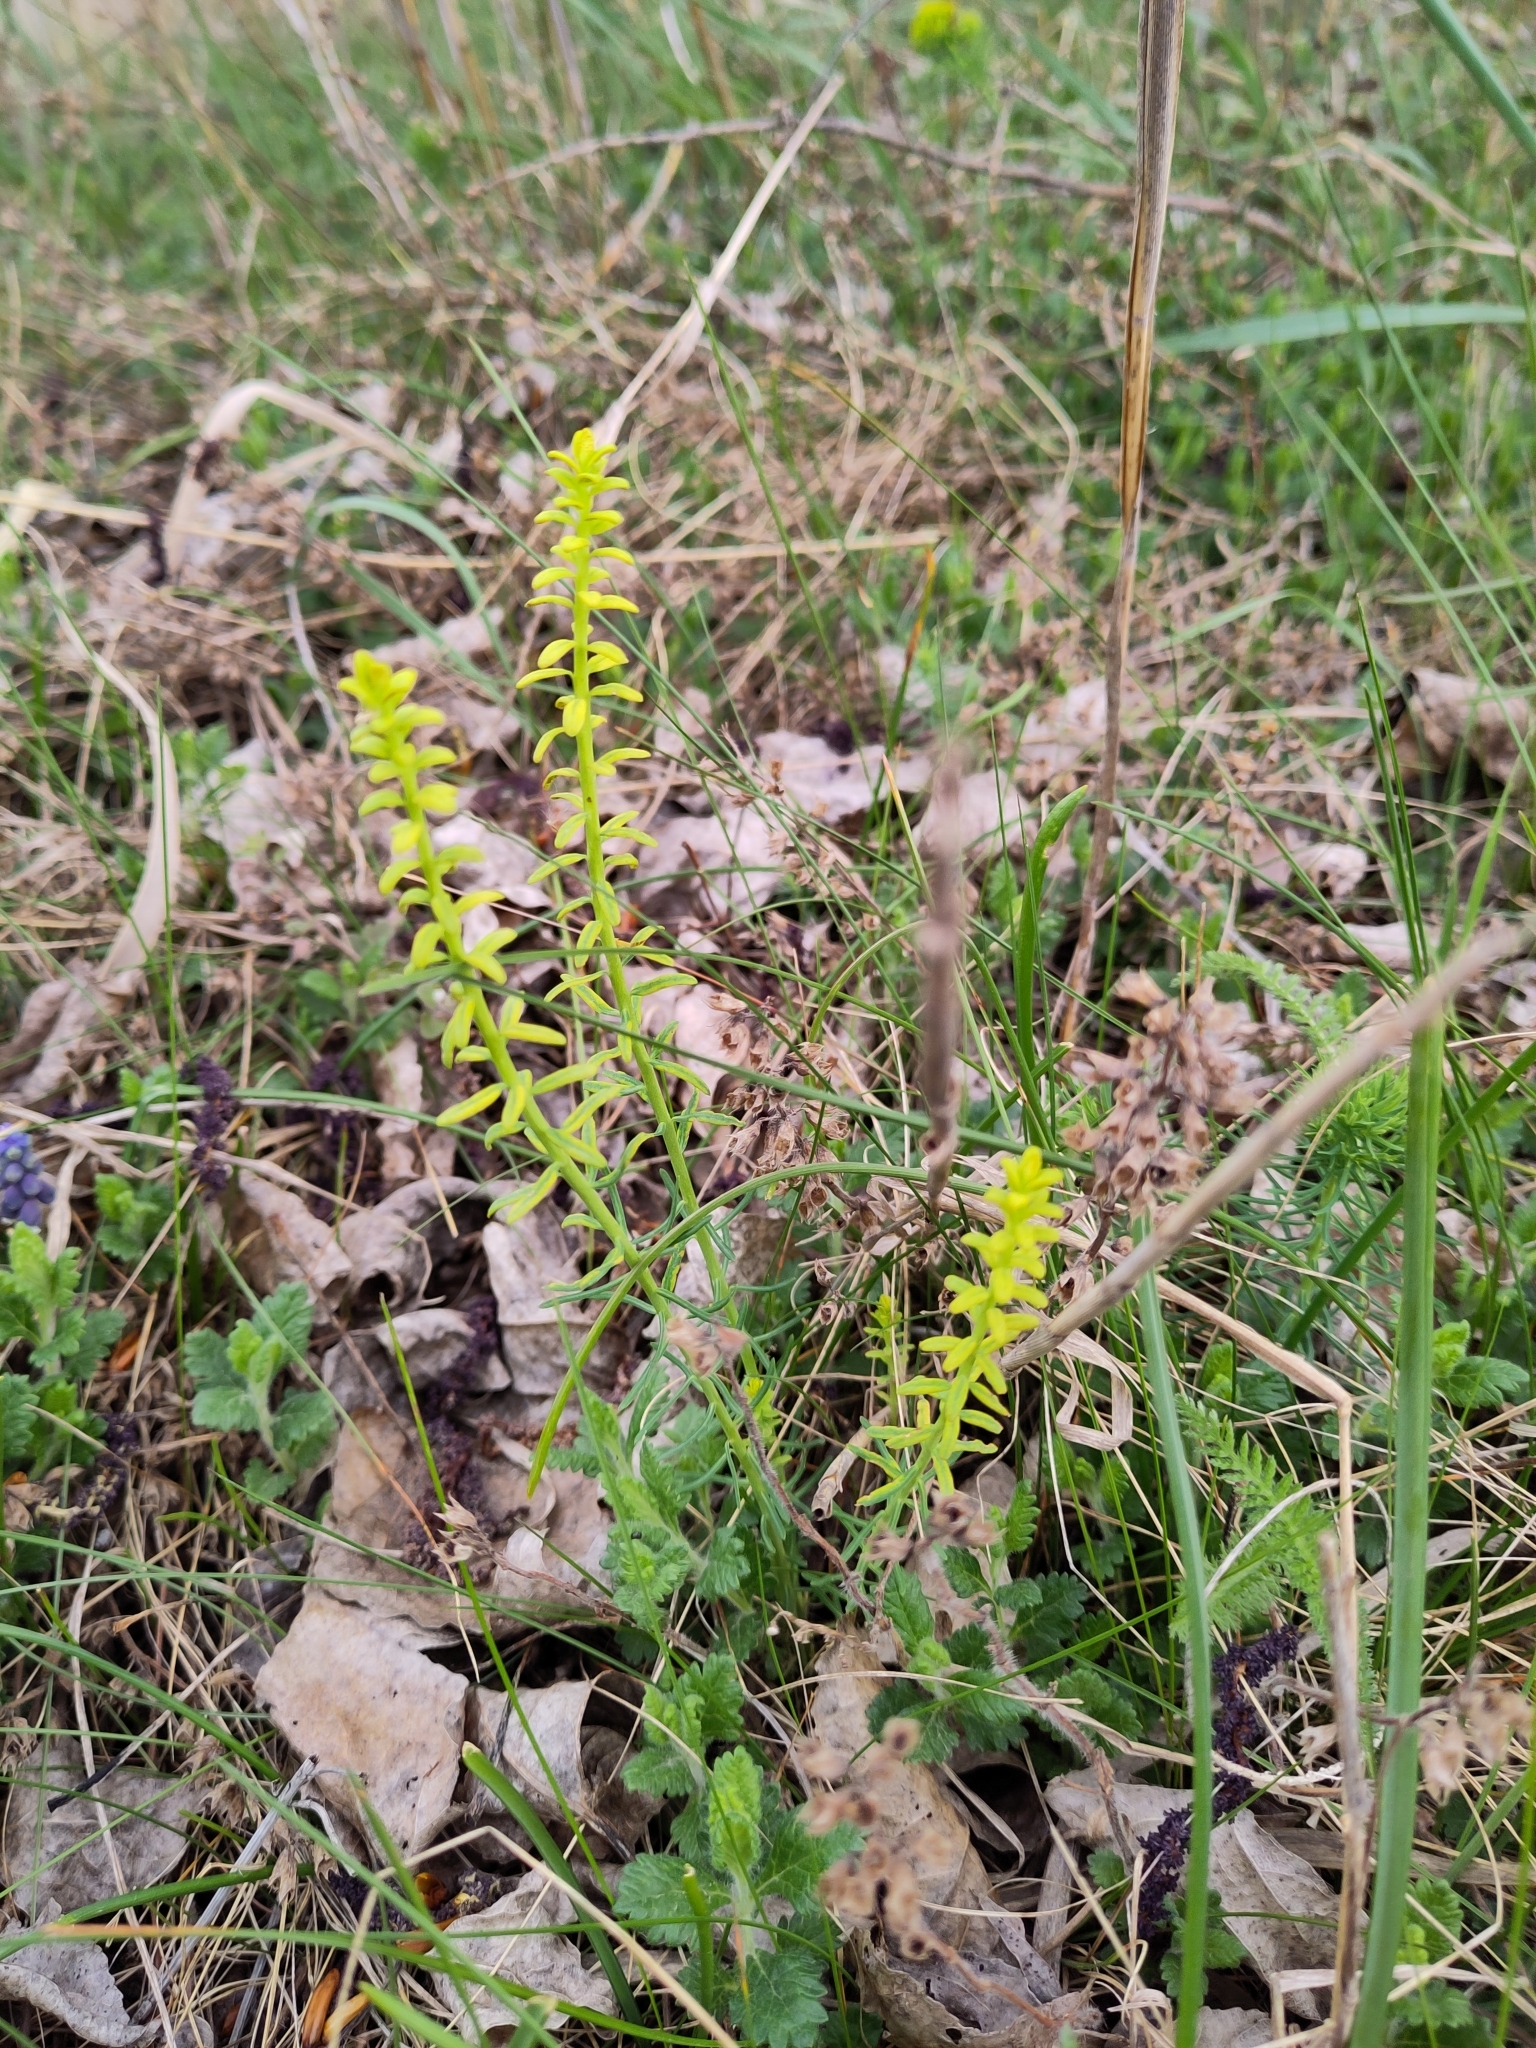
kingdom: Plantae
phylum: Tracheophyta
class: Magnoliopsida
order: Malpighiales
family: Euphorbiaceae
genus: Euphorbia
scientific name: Euphorbia cyparissias
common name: Cypress spurge
